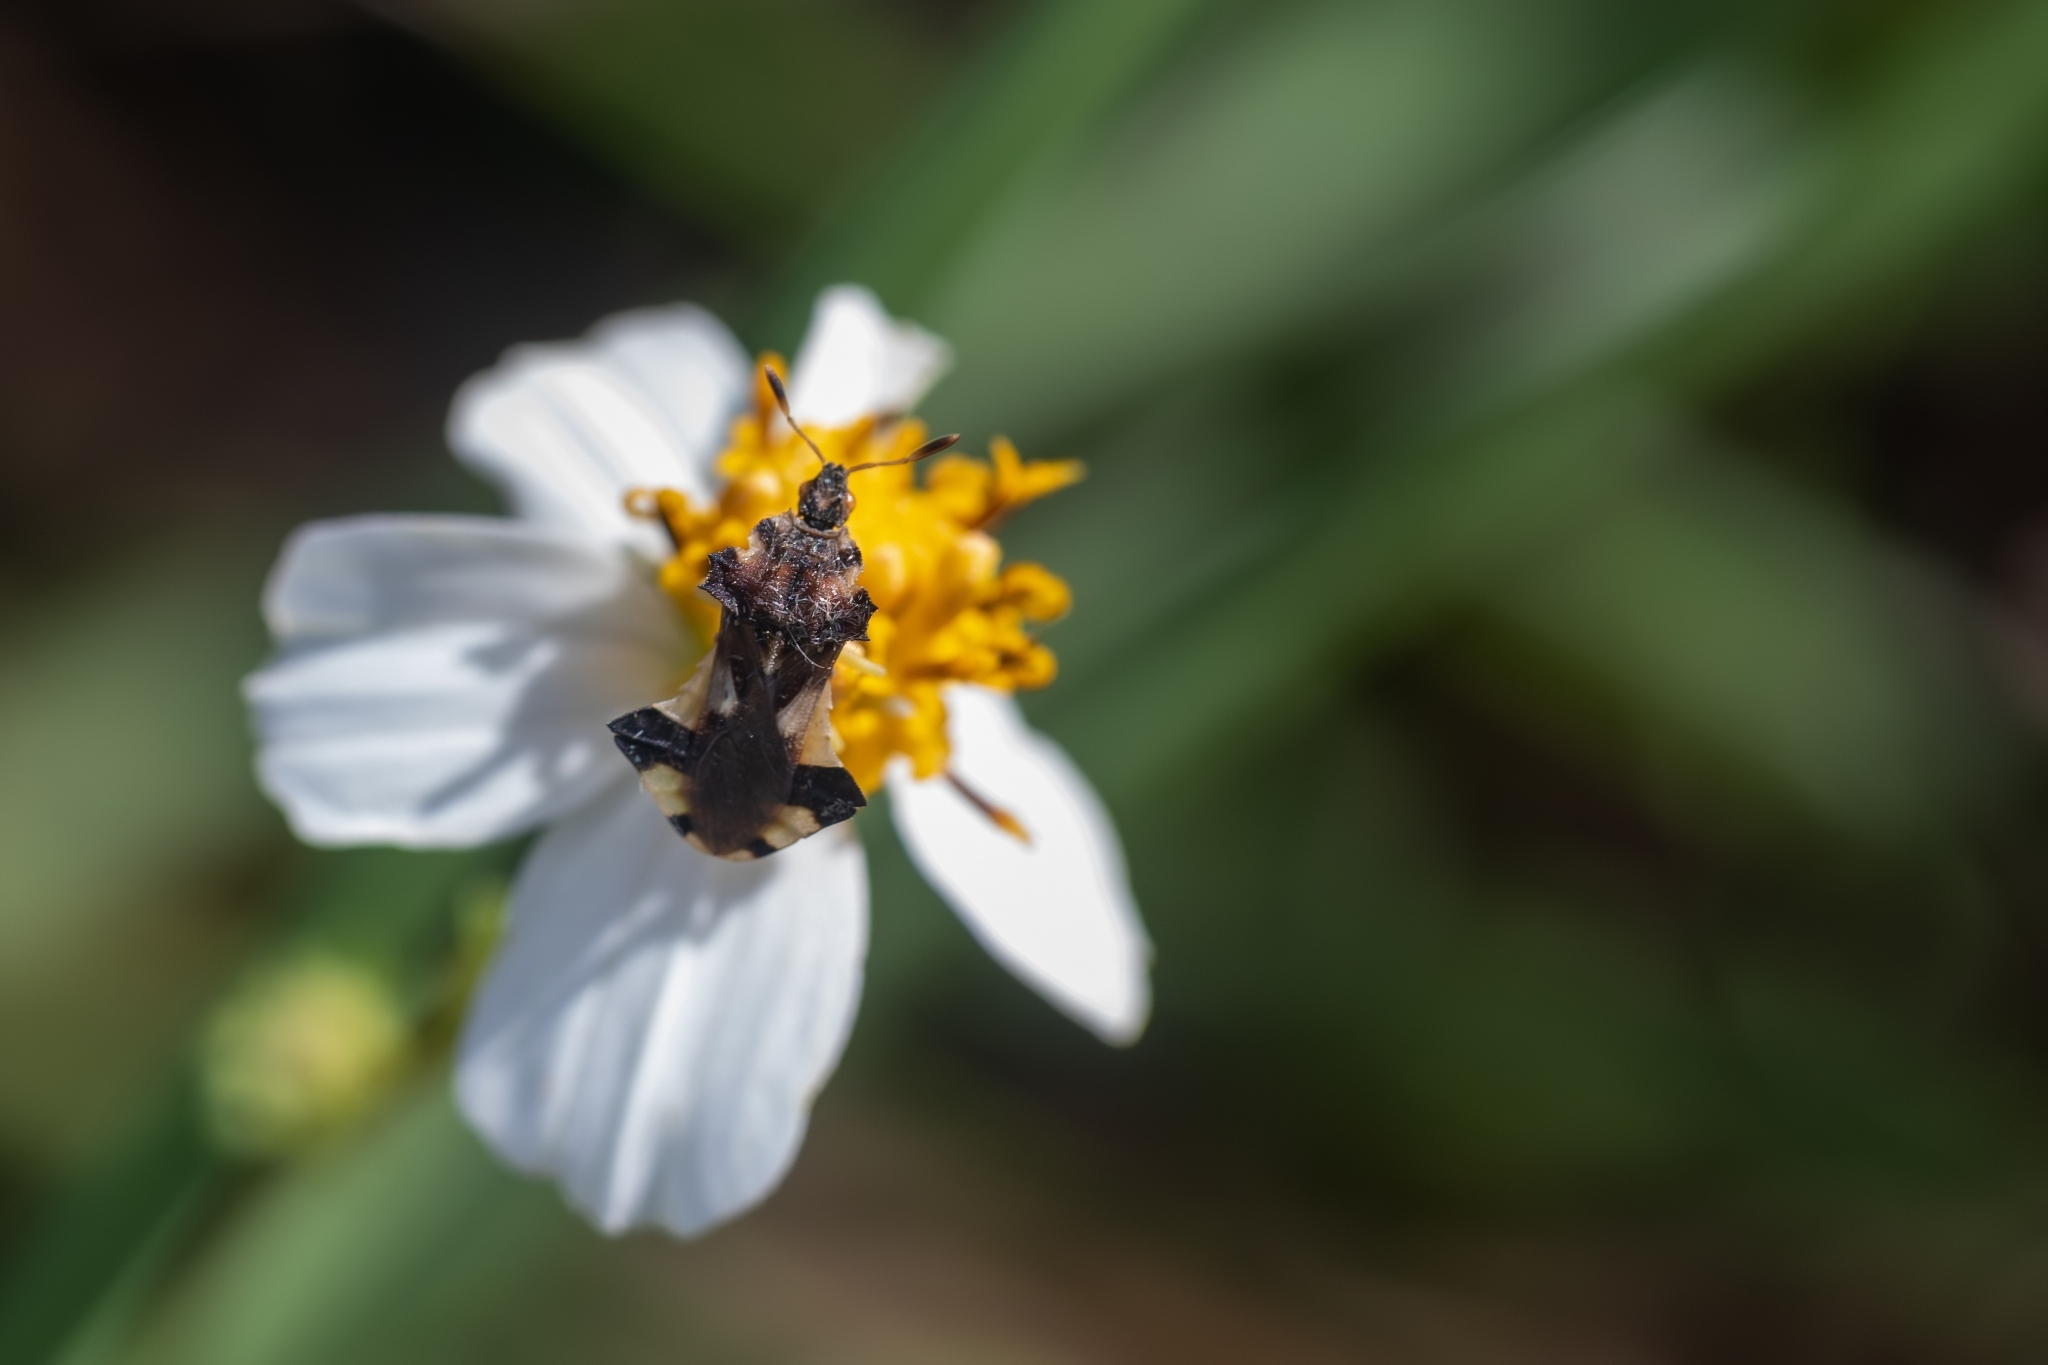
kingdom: Animalia
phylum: Arthropoda
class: Insecta
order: Hemiptera
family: Reduviidae
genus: Phymata
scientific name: Phymata
